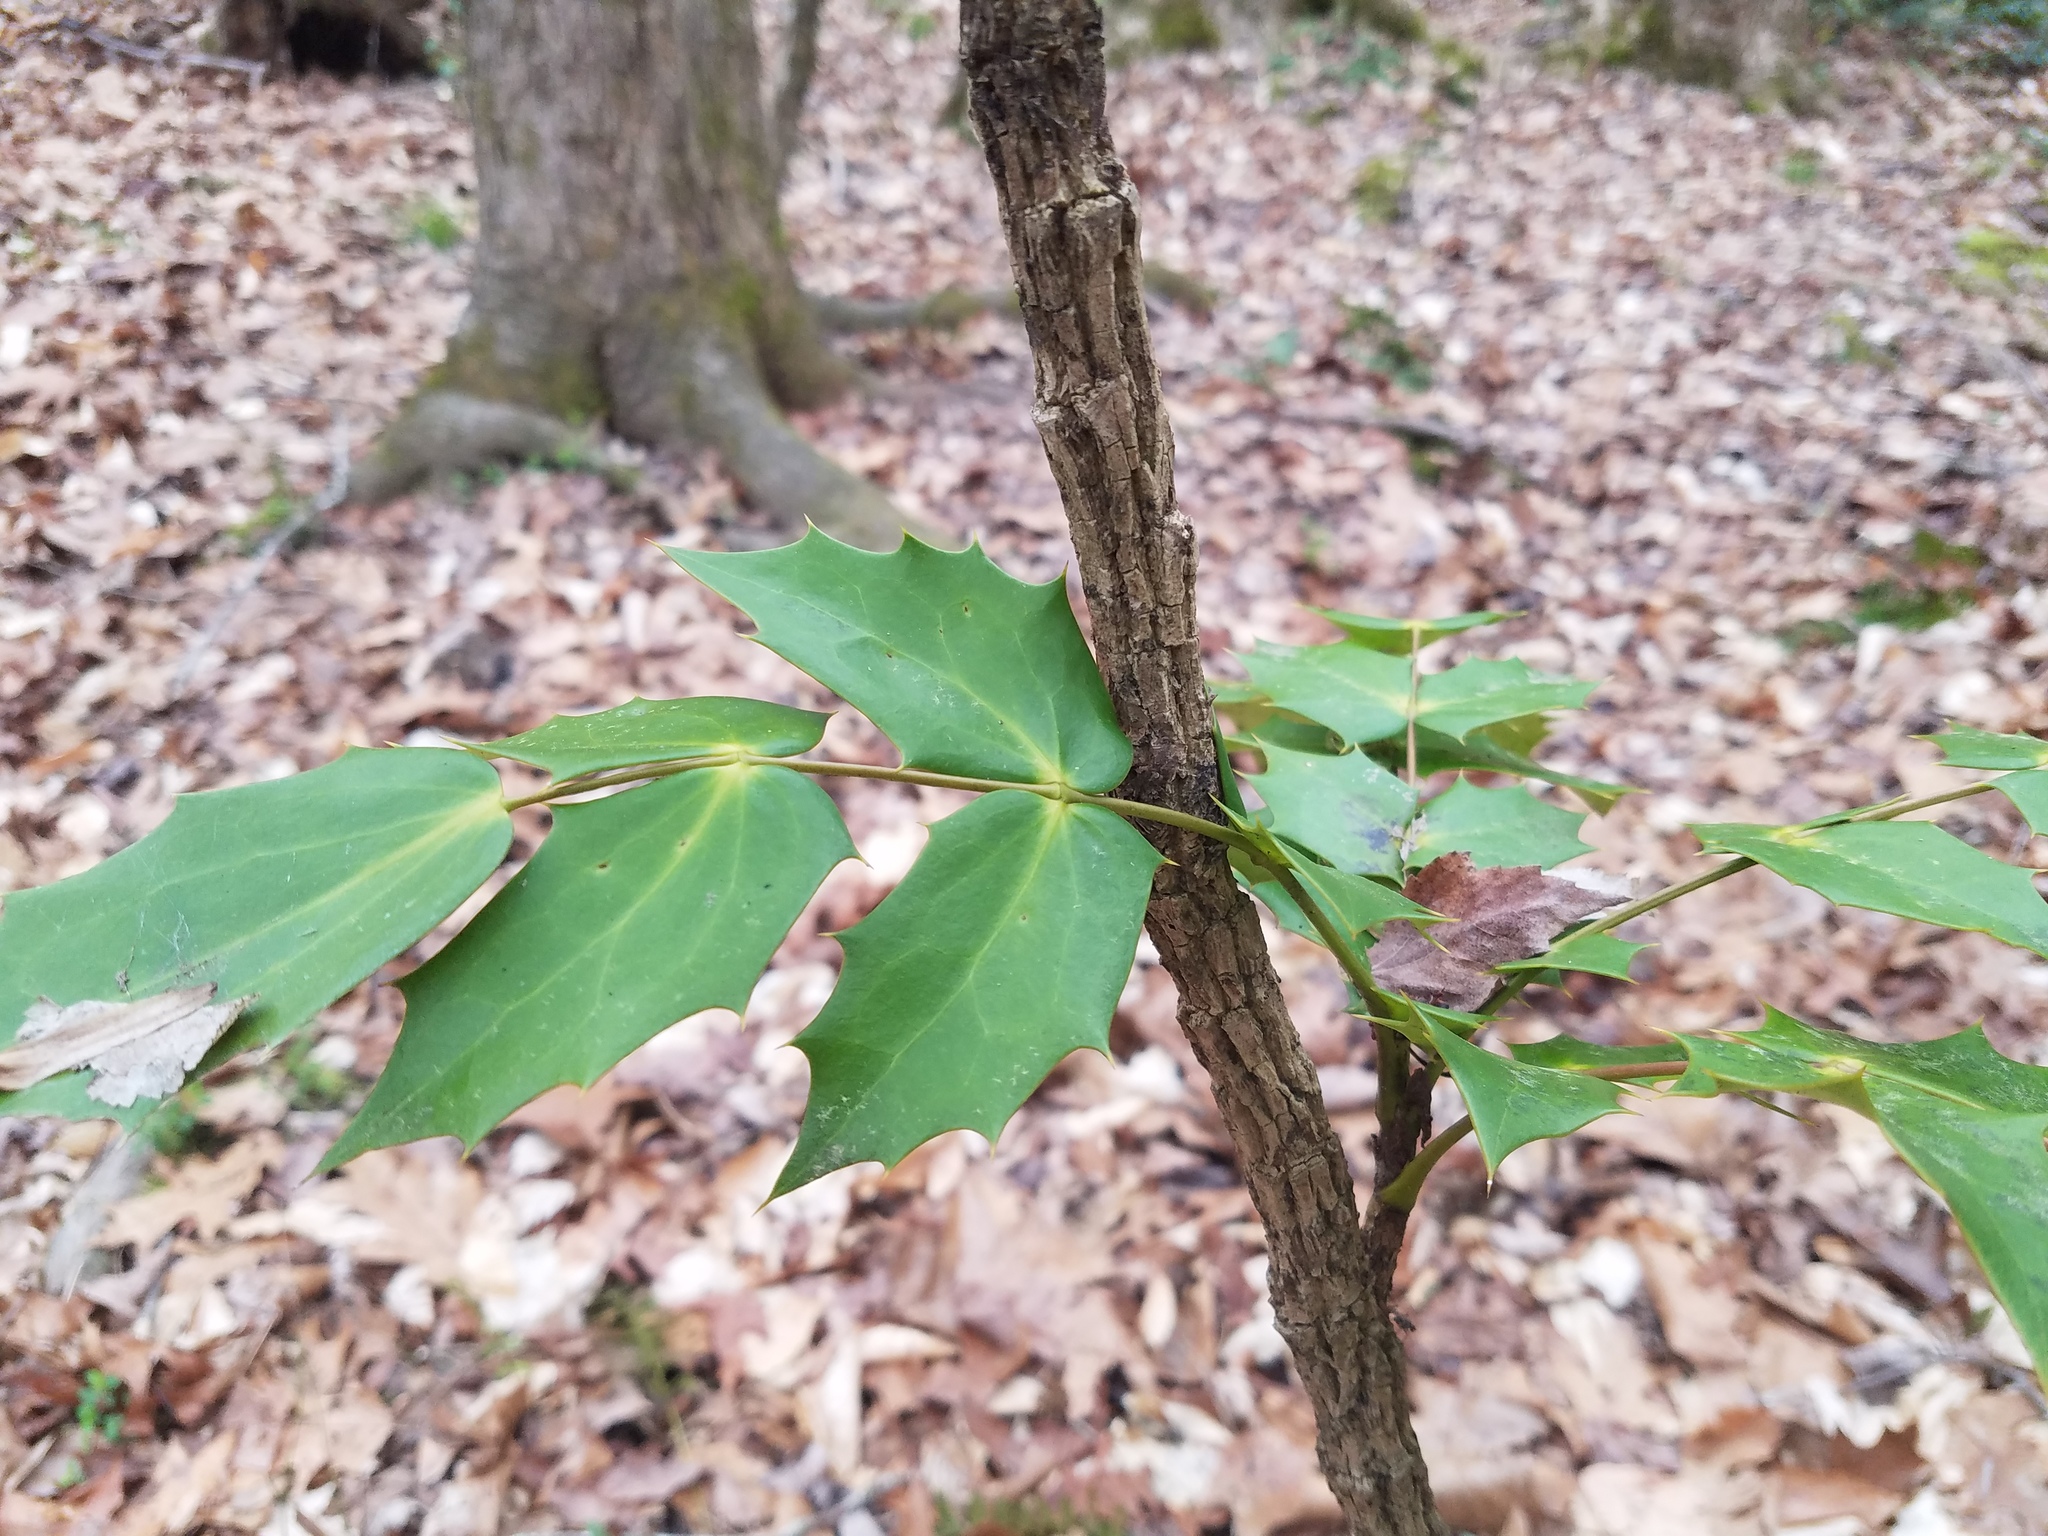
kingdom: Plantae
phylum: Tracheophyta
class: Magnoliopsida
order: Ranunculales
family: Berberidaceae
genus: Mahonia
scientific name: Mahonia bealei
